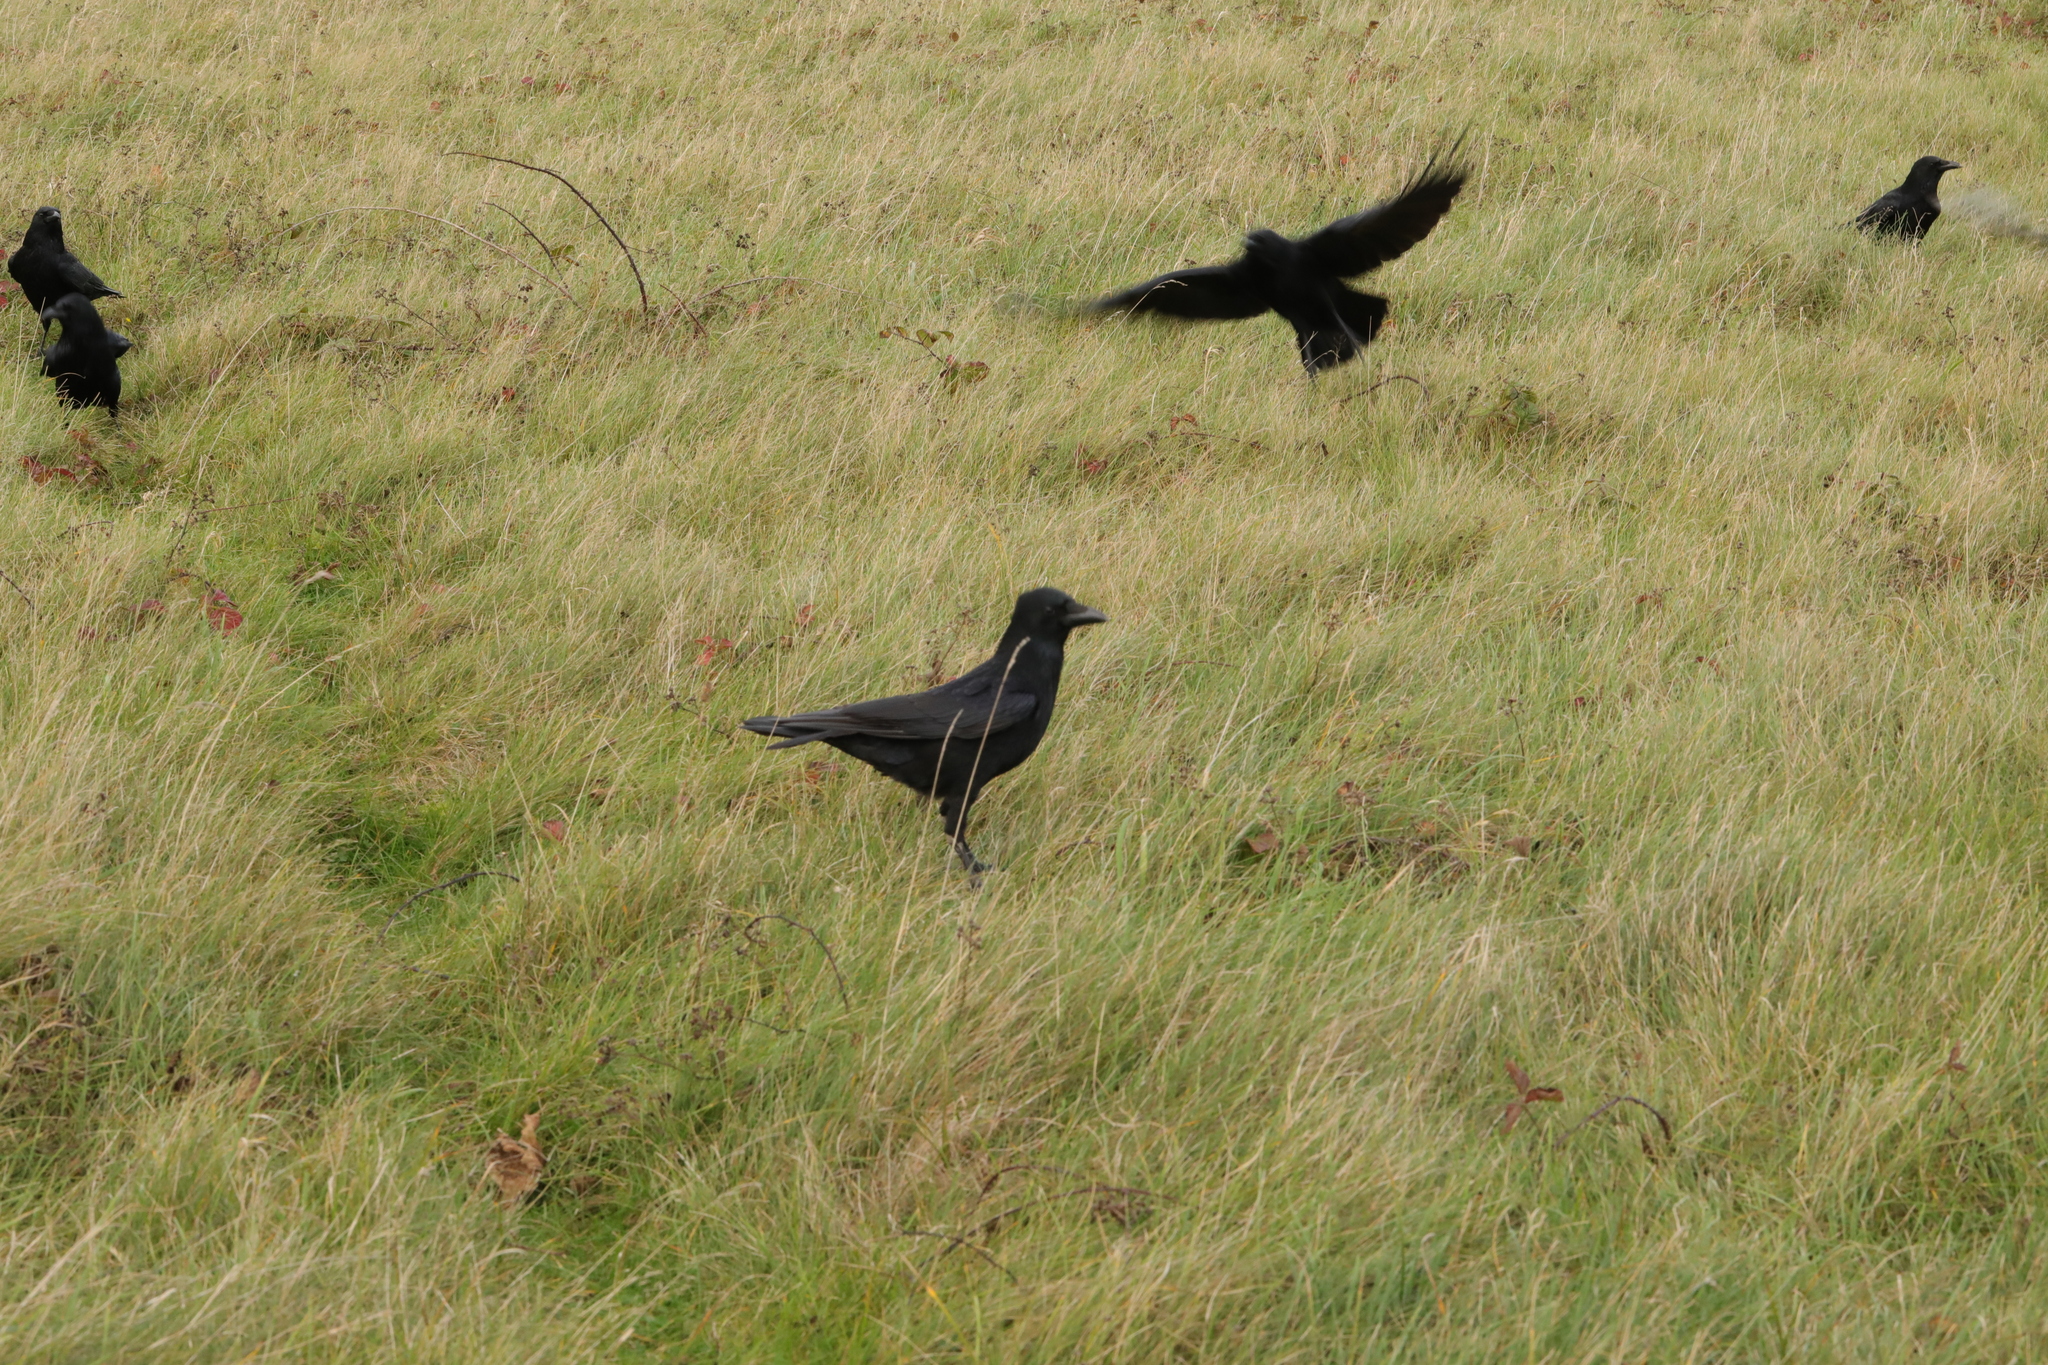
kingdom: Animalia
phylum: Chordata
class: Aves
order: Passeriformes
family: Corvidae
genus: Corvus
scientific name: Corvus corone
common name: Carrion crow
